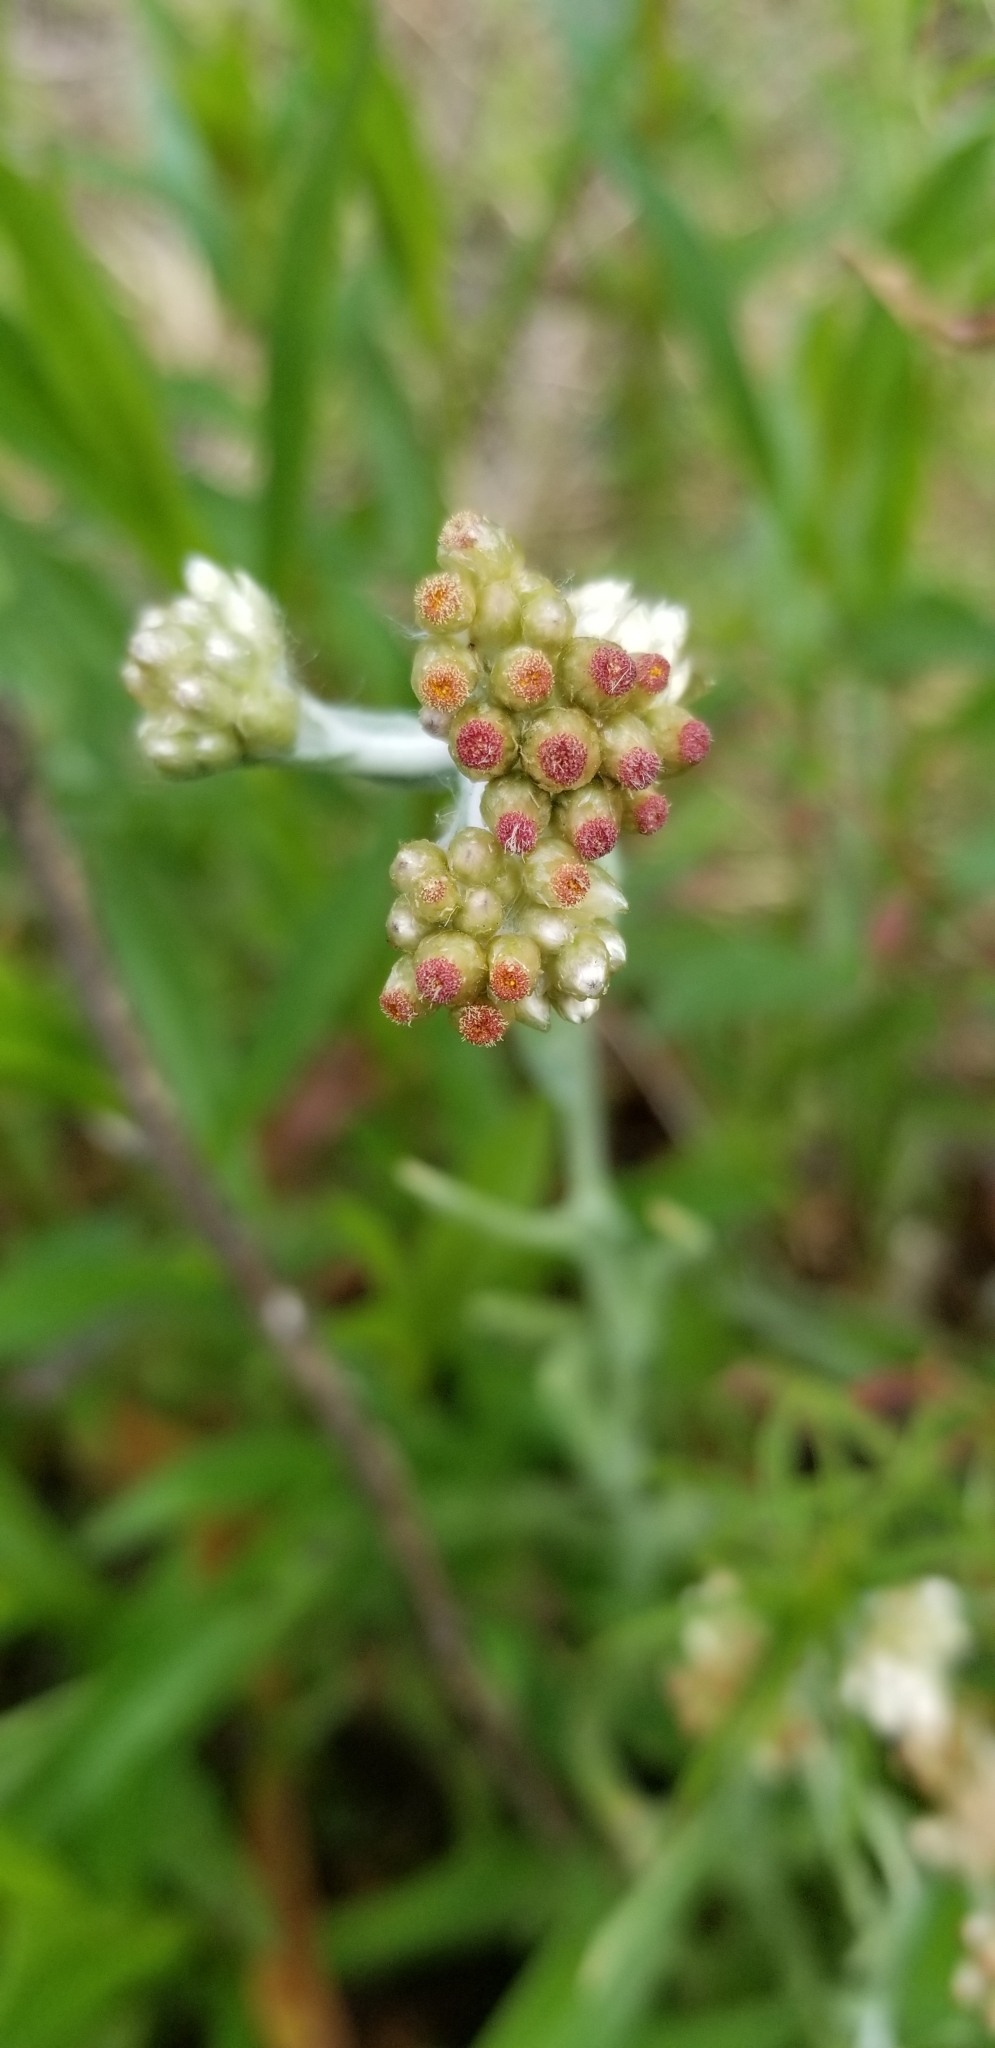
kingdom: Plantae
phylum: Tracheophyta
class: Magnoliopsida
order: Asterales
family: Asteraceae
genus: Helichrysum
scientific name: Helichrysum luteoalbum
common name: Daisy
